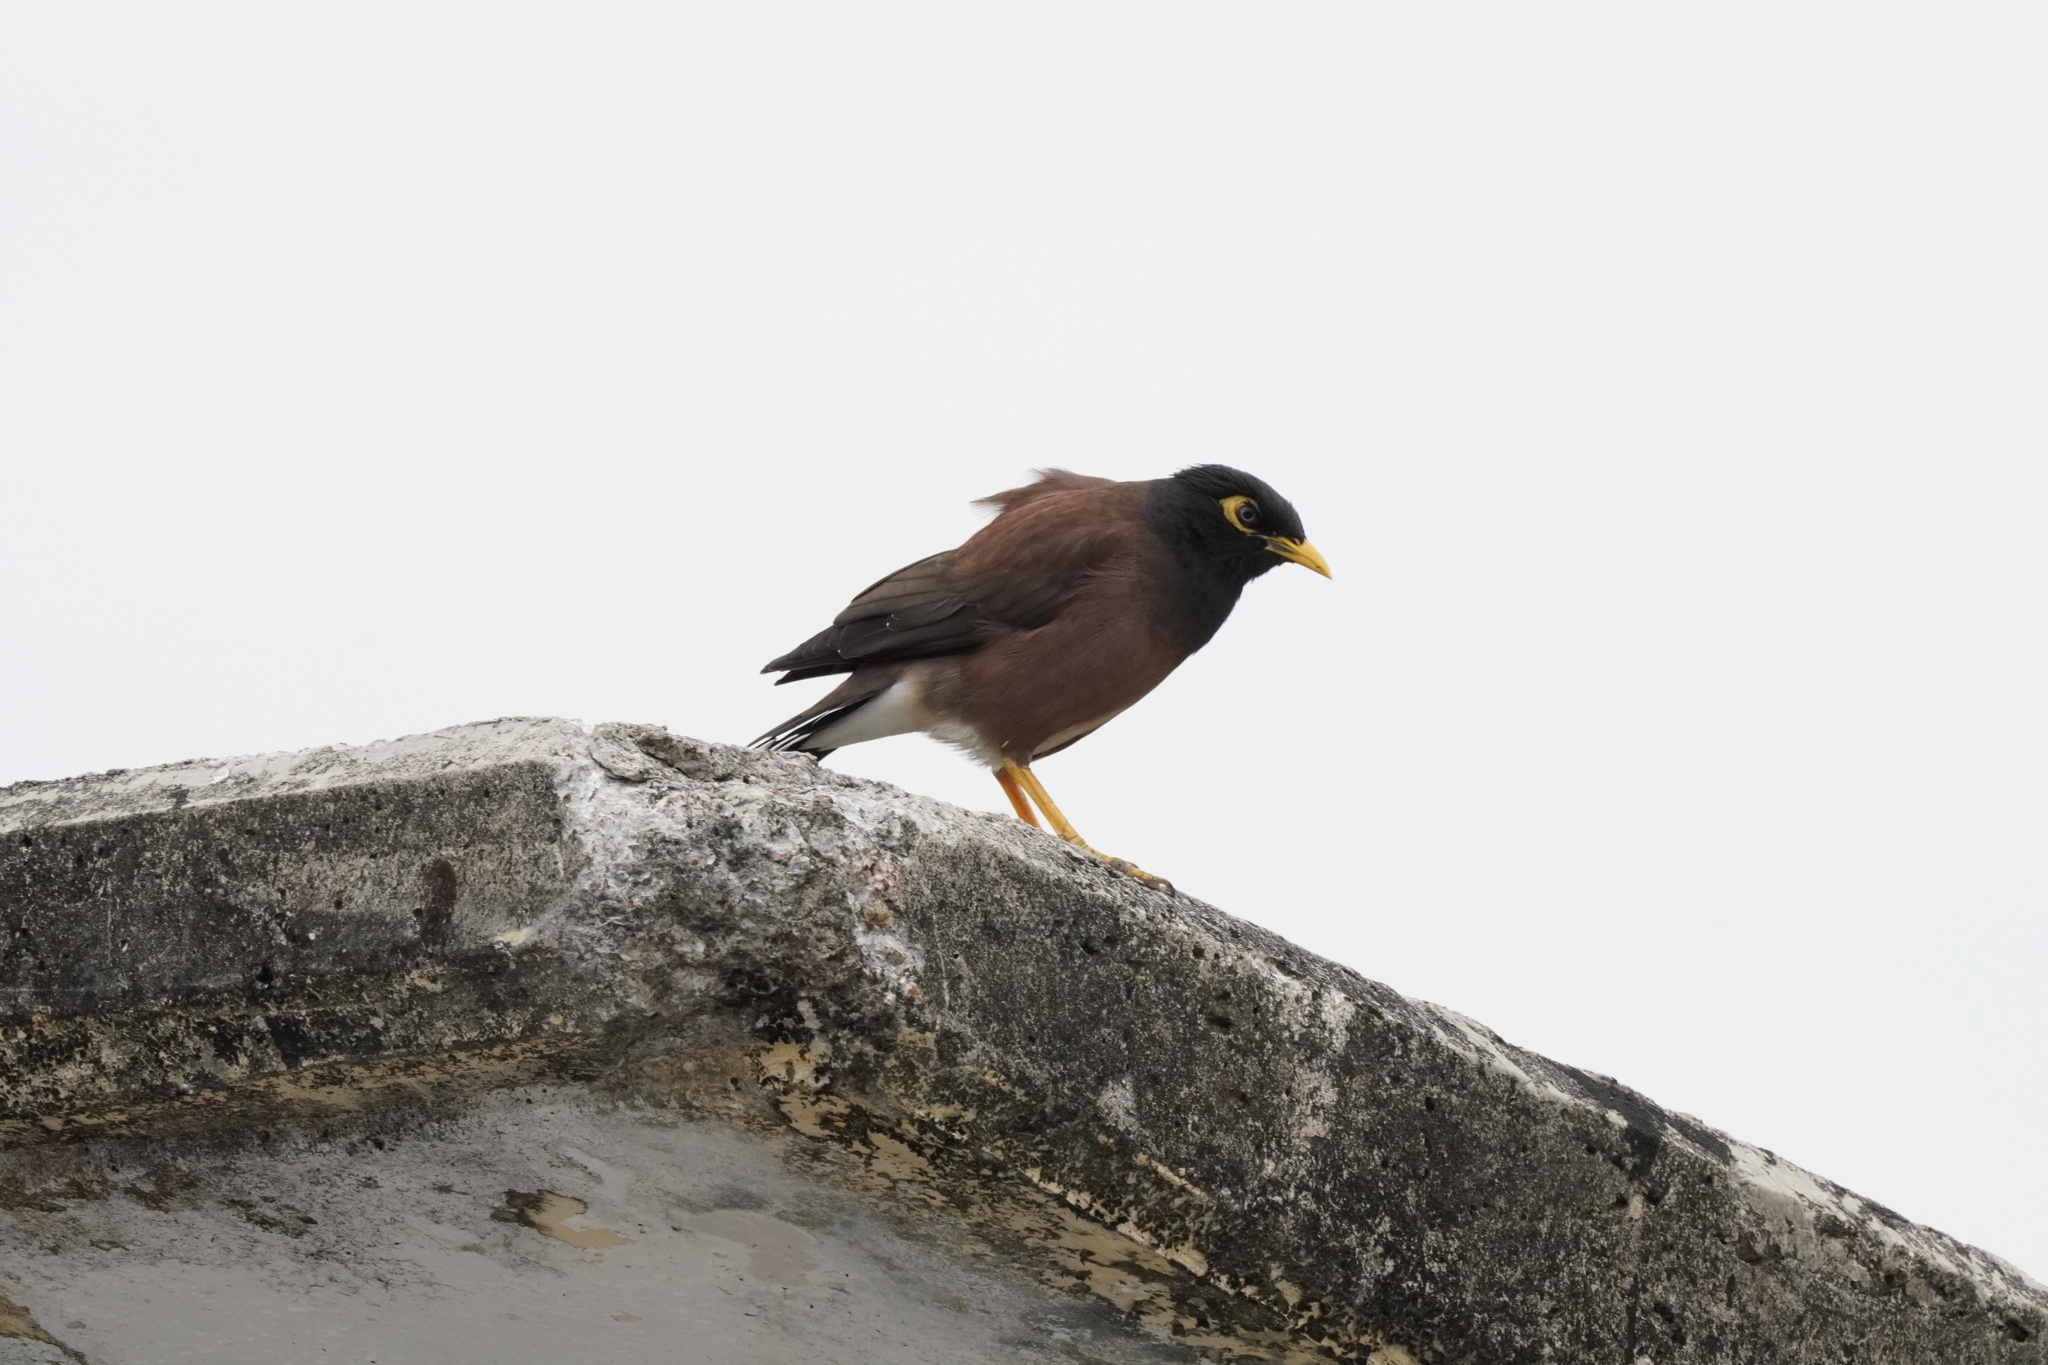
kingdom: Animalia
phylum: Chordata
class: Aves
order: Passeriformes
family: Sturnidae
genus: Acridotheres
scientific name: Acridotheres tristis
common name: Common myna
